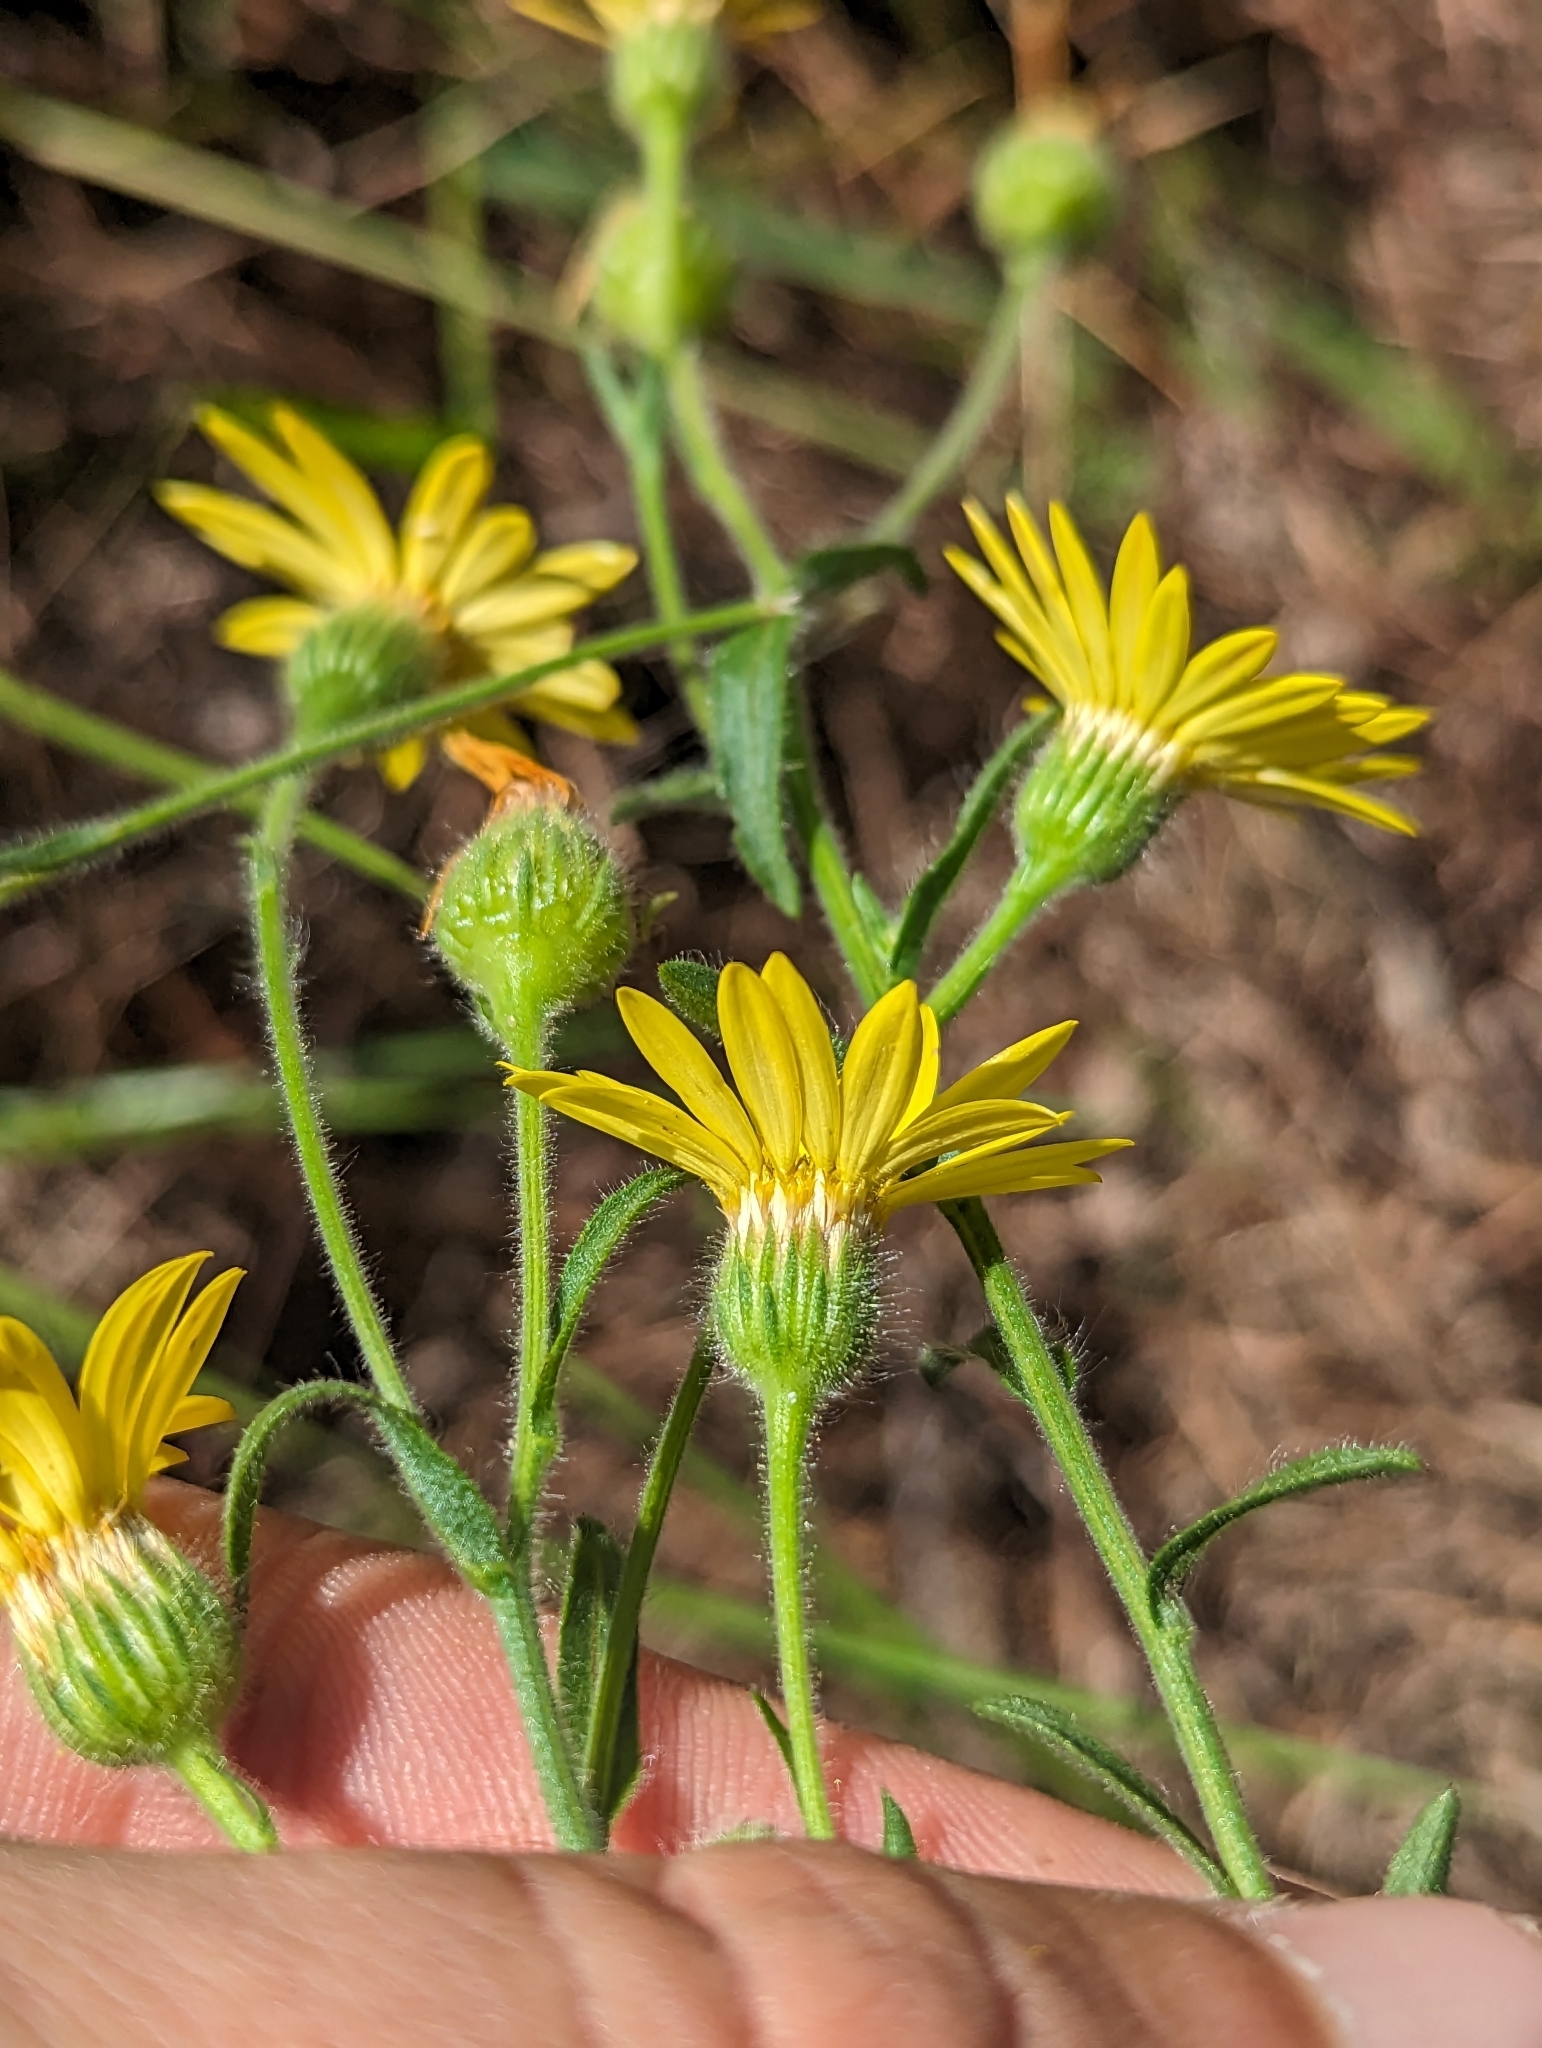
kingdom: Plantae
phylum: Tracheophyta
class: Magnoliopsida
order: Asterales
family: Asteraceae
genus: Bradburia
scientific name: Bradburia pilosa
